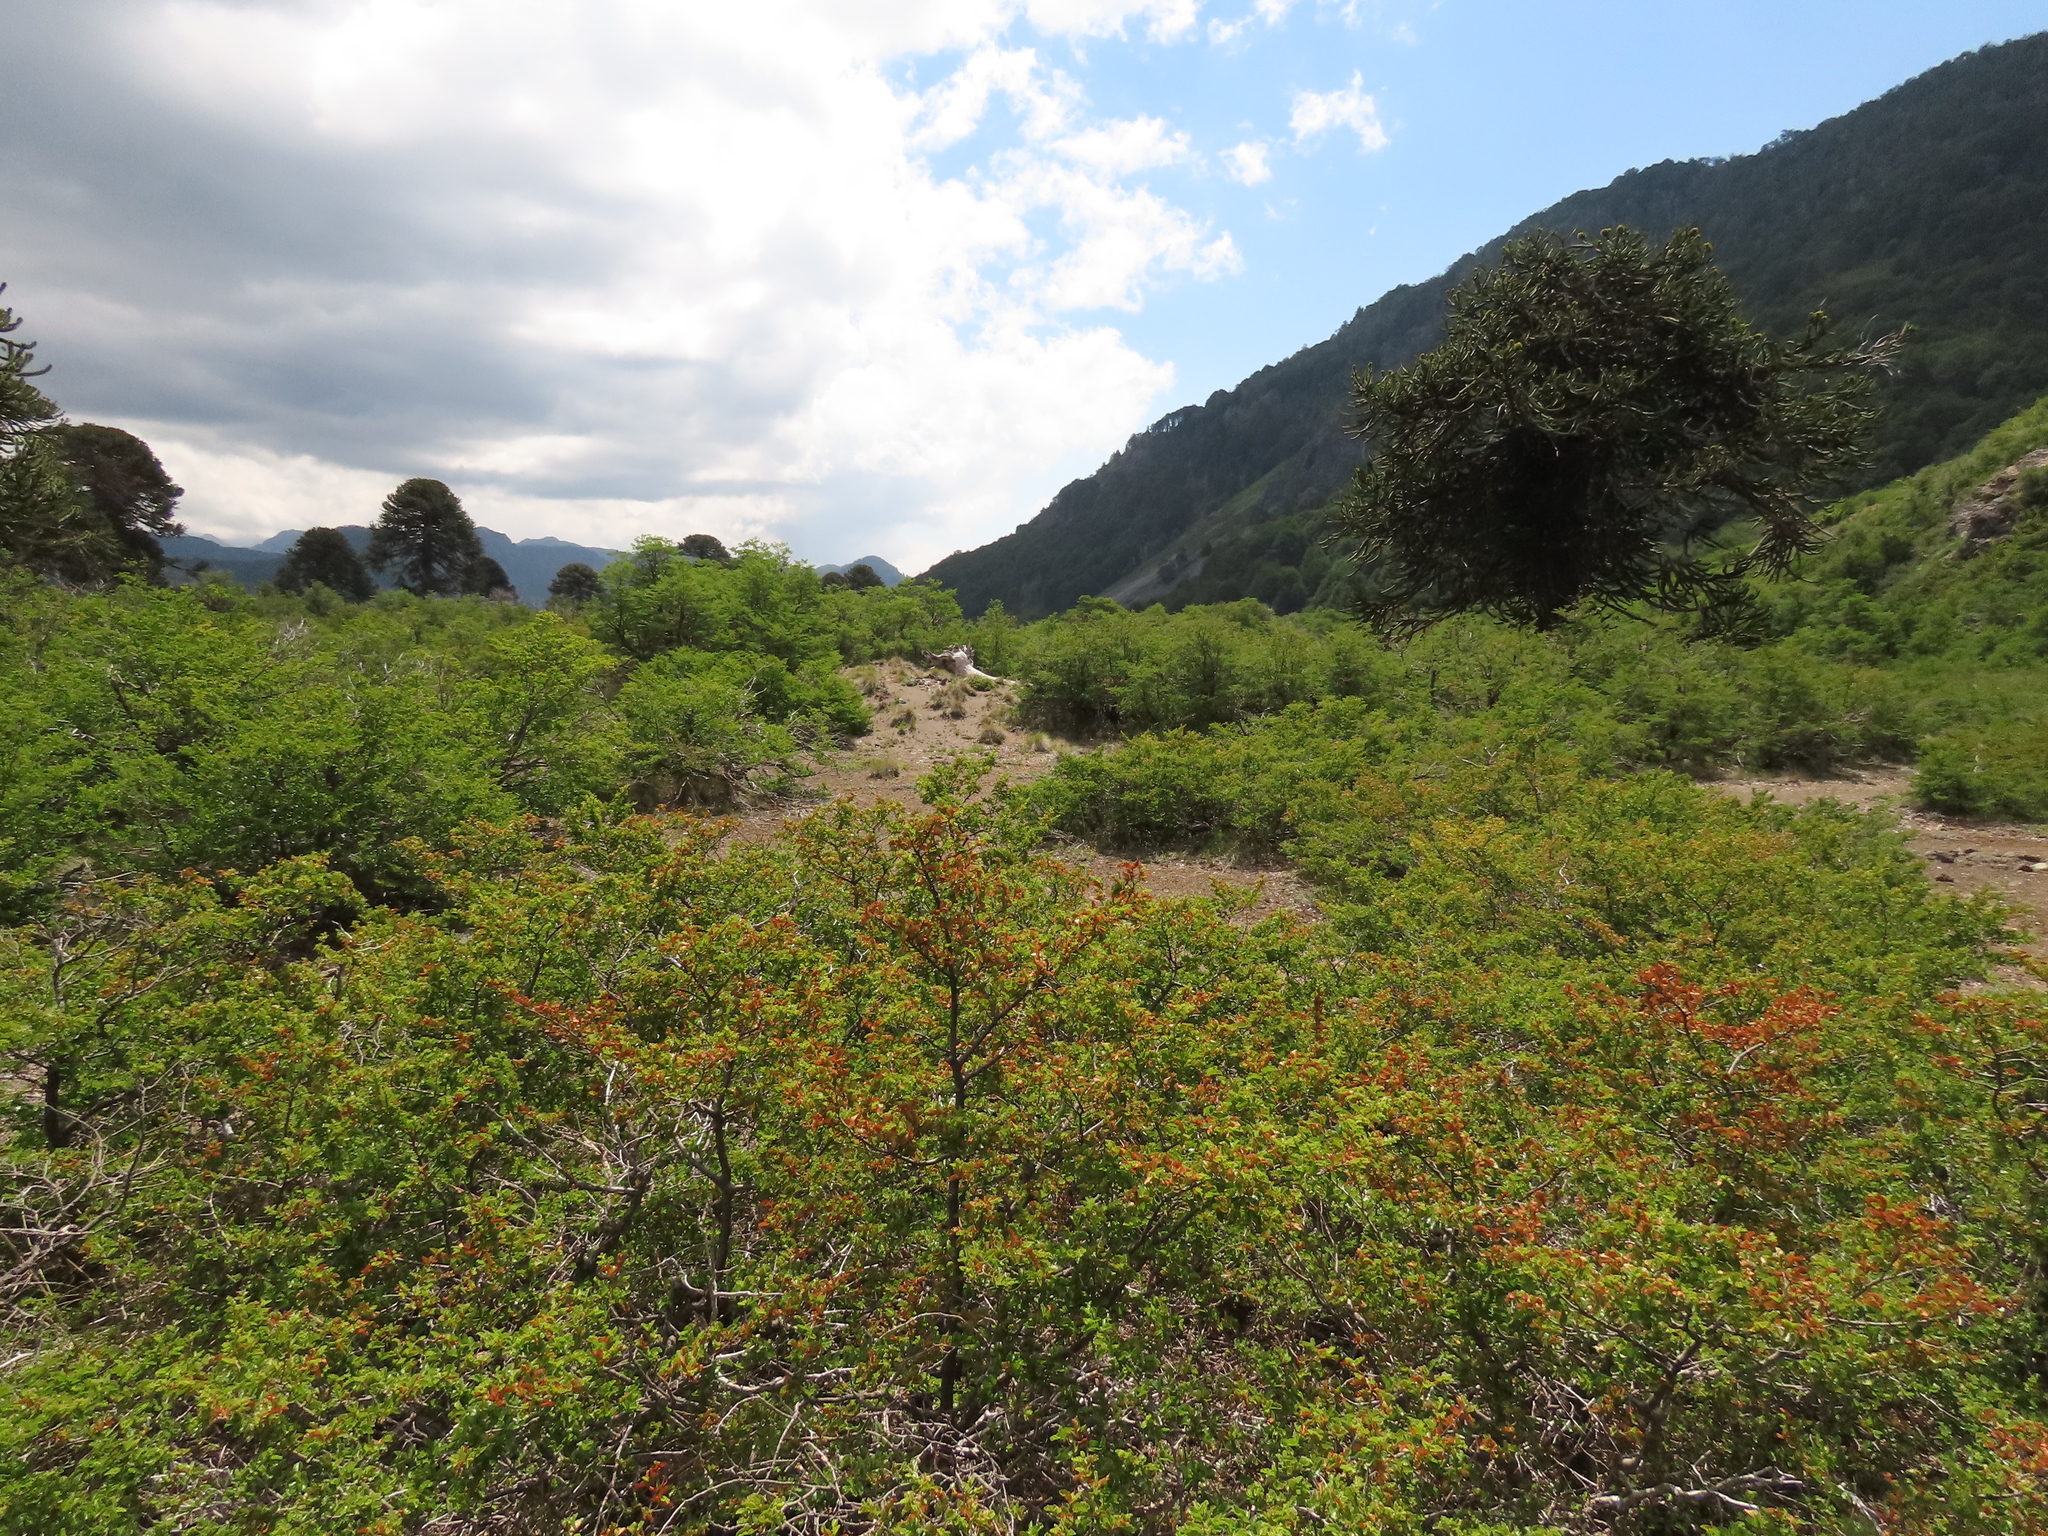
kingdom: Plantae
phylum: Tracheophyta
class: Magnoliopsida
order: Fagales
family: Nothofagaceae
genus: Nothofagus
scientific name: Nothofagus antarctica
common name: Antarctic beech
